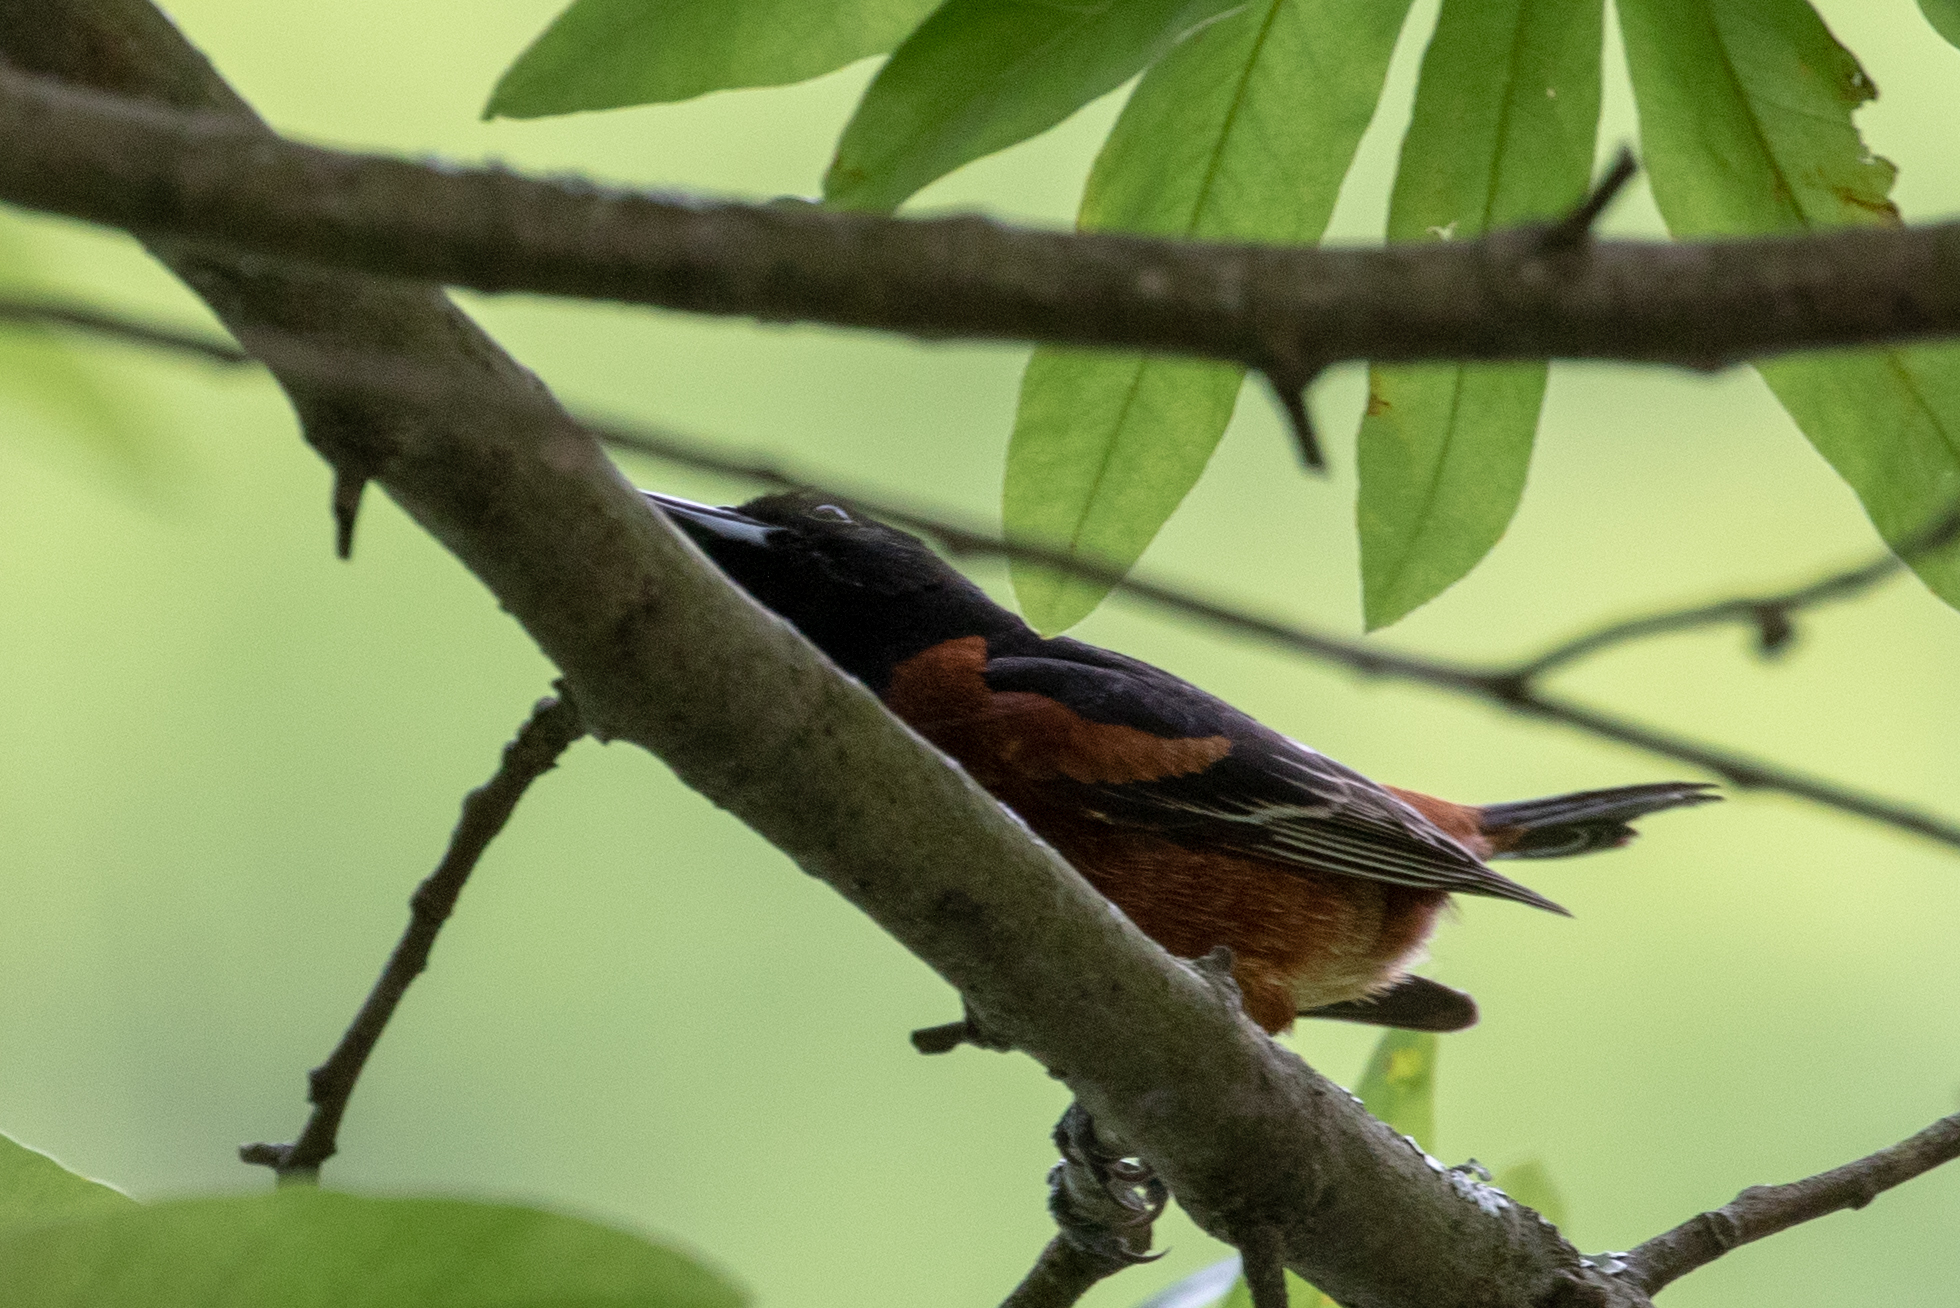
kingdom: Animalia
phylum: Chordata
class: Aves
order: Passeriformes
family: Icteridae
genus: Icterus
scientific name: Icterus spurius
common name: Orchard oriole
